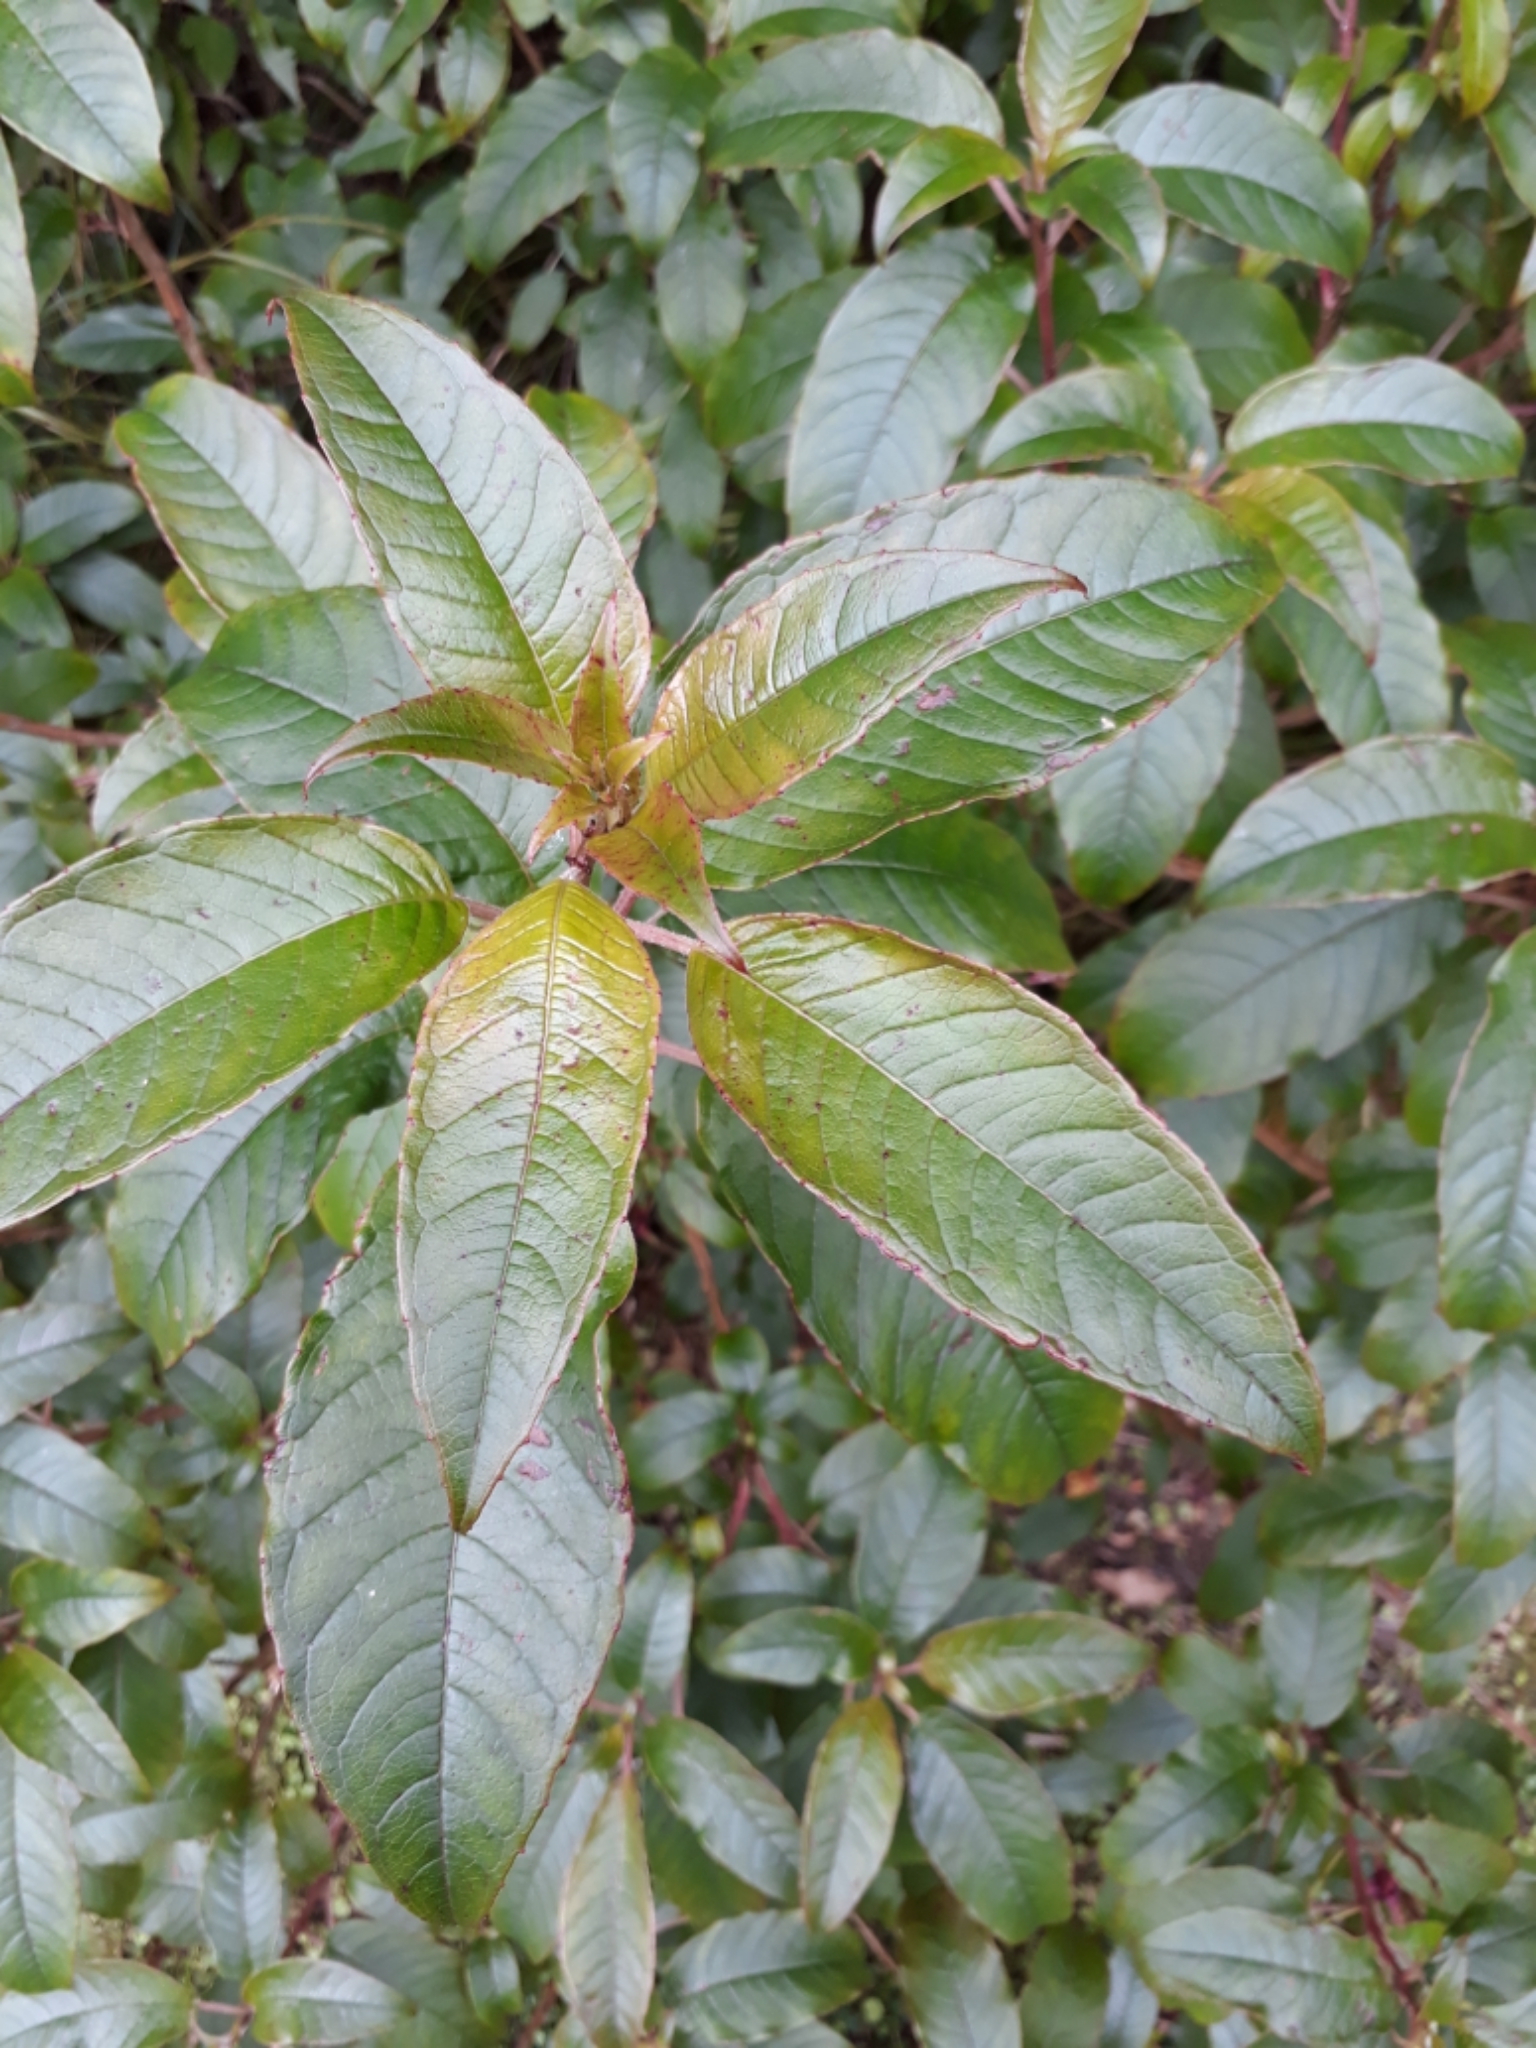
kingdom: Plantae
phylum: Tracheophyta
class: Magnoliopsida
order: Myrtales
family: Onagraceae
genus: Fuchsia
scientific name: Fuchsia excorticata
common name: Tree fuchsia
